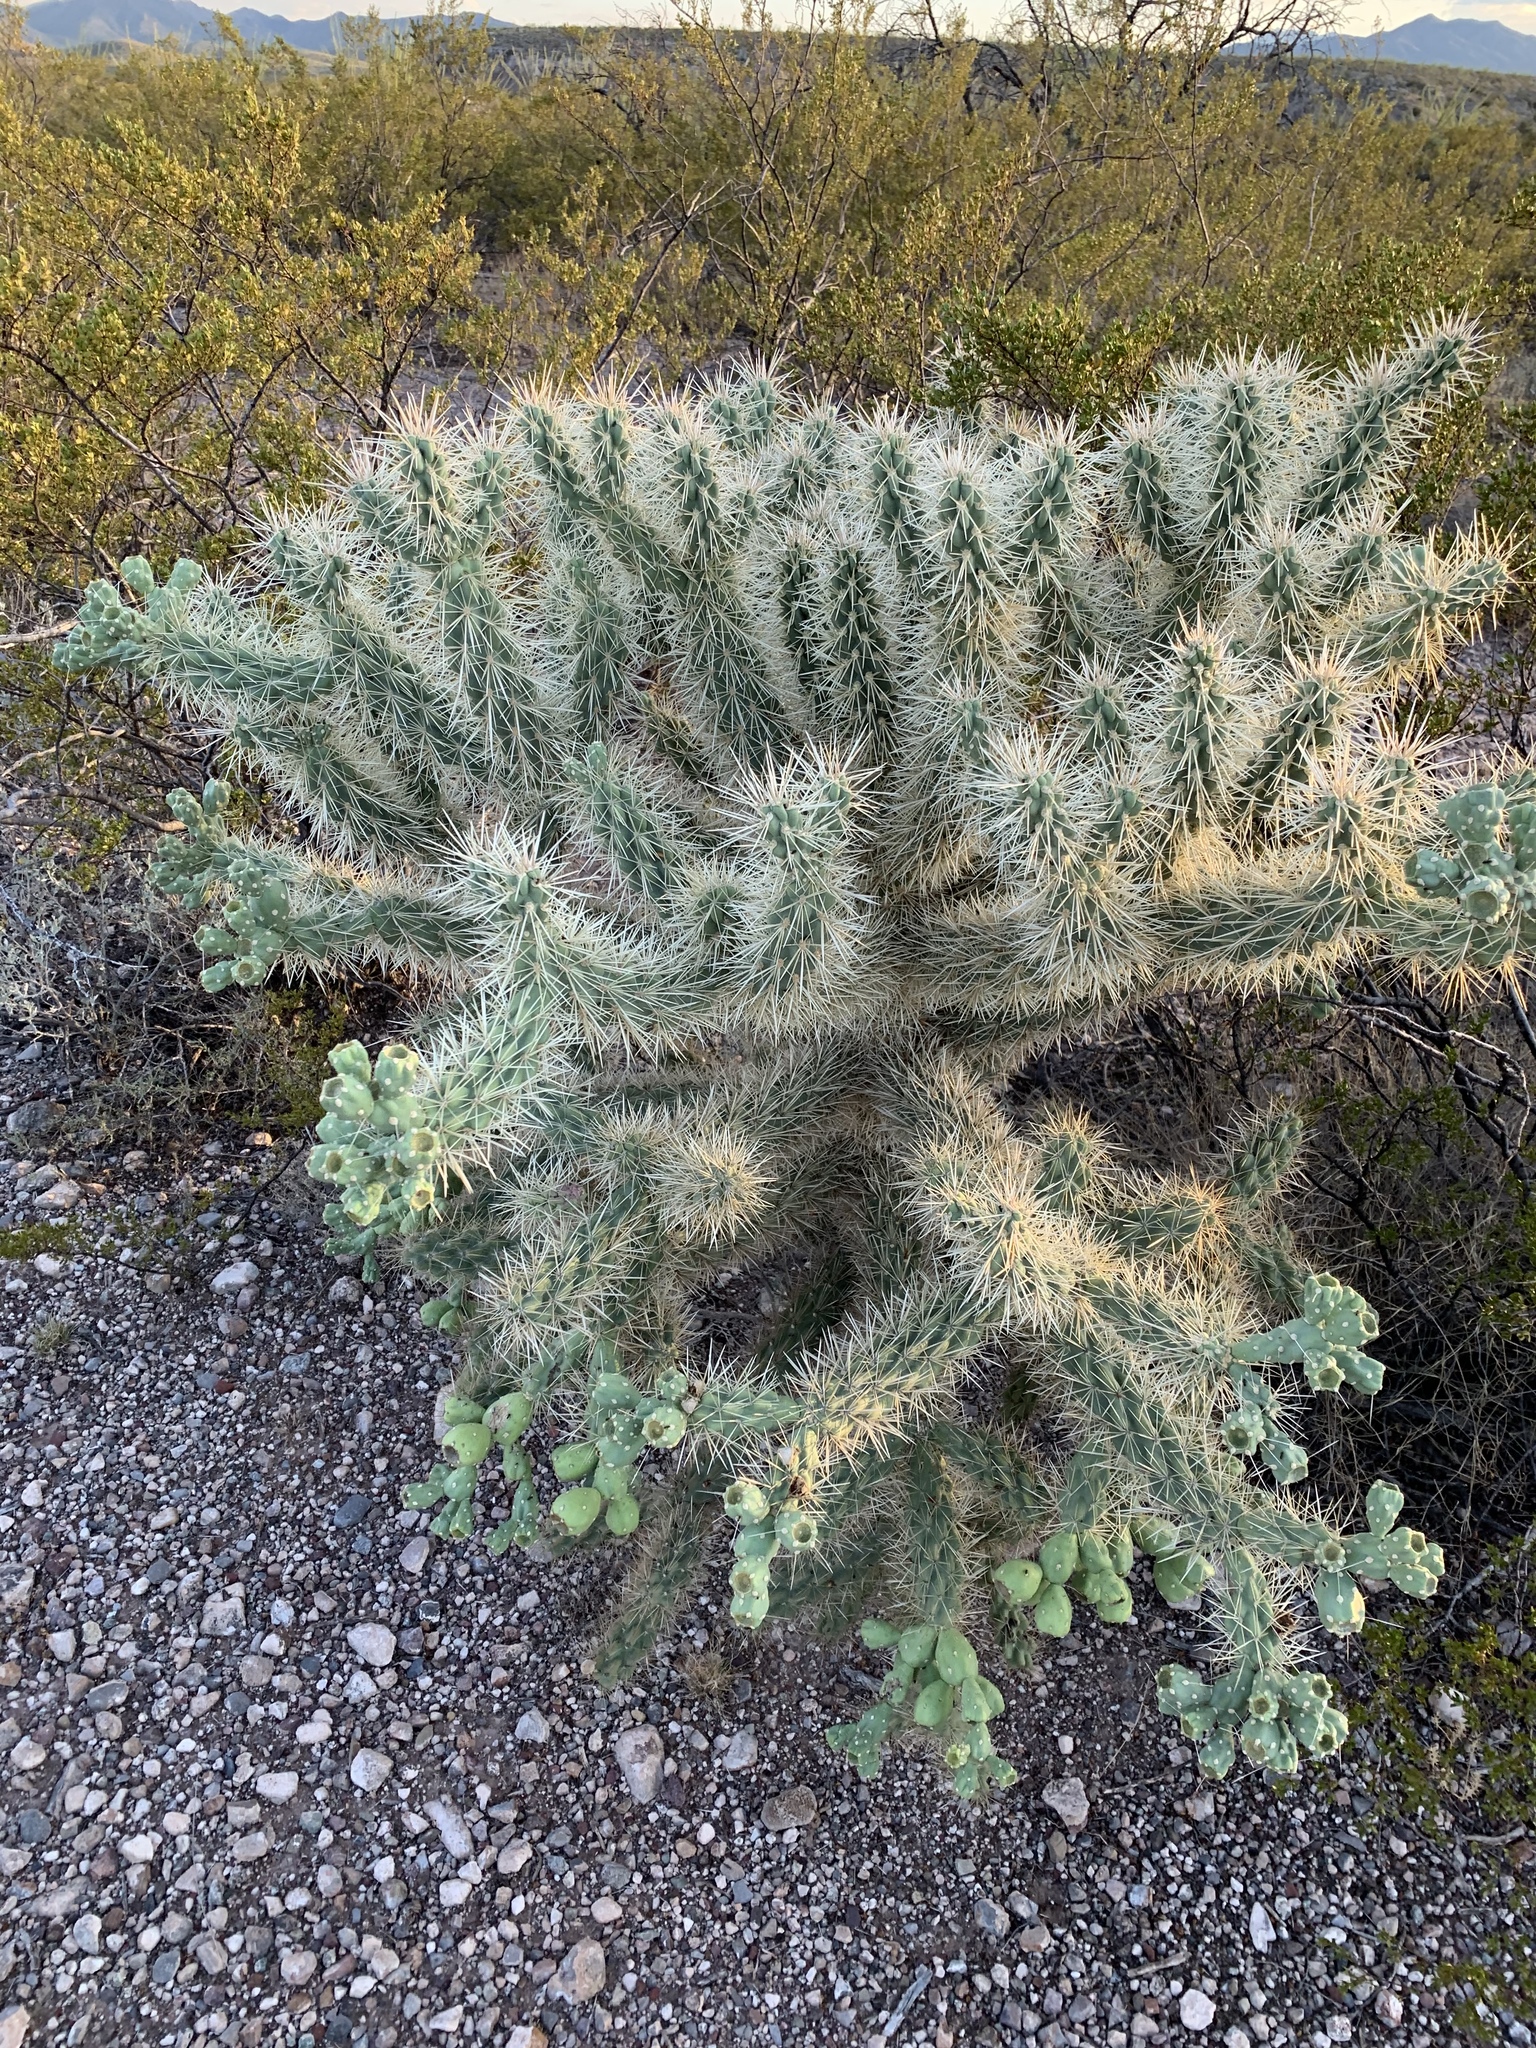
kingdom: Plantae
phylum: Tracheophyta
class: Magnoliopsida
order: Caryophyllales
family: Cactaceae
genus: Cylindropuntia
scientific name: Cylindropuntia fulgida
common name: Jumping cholla
